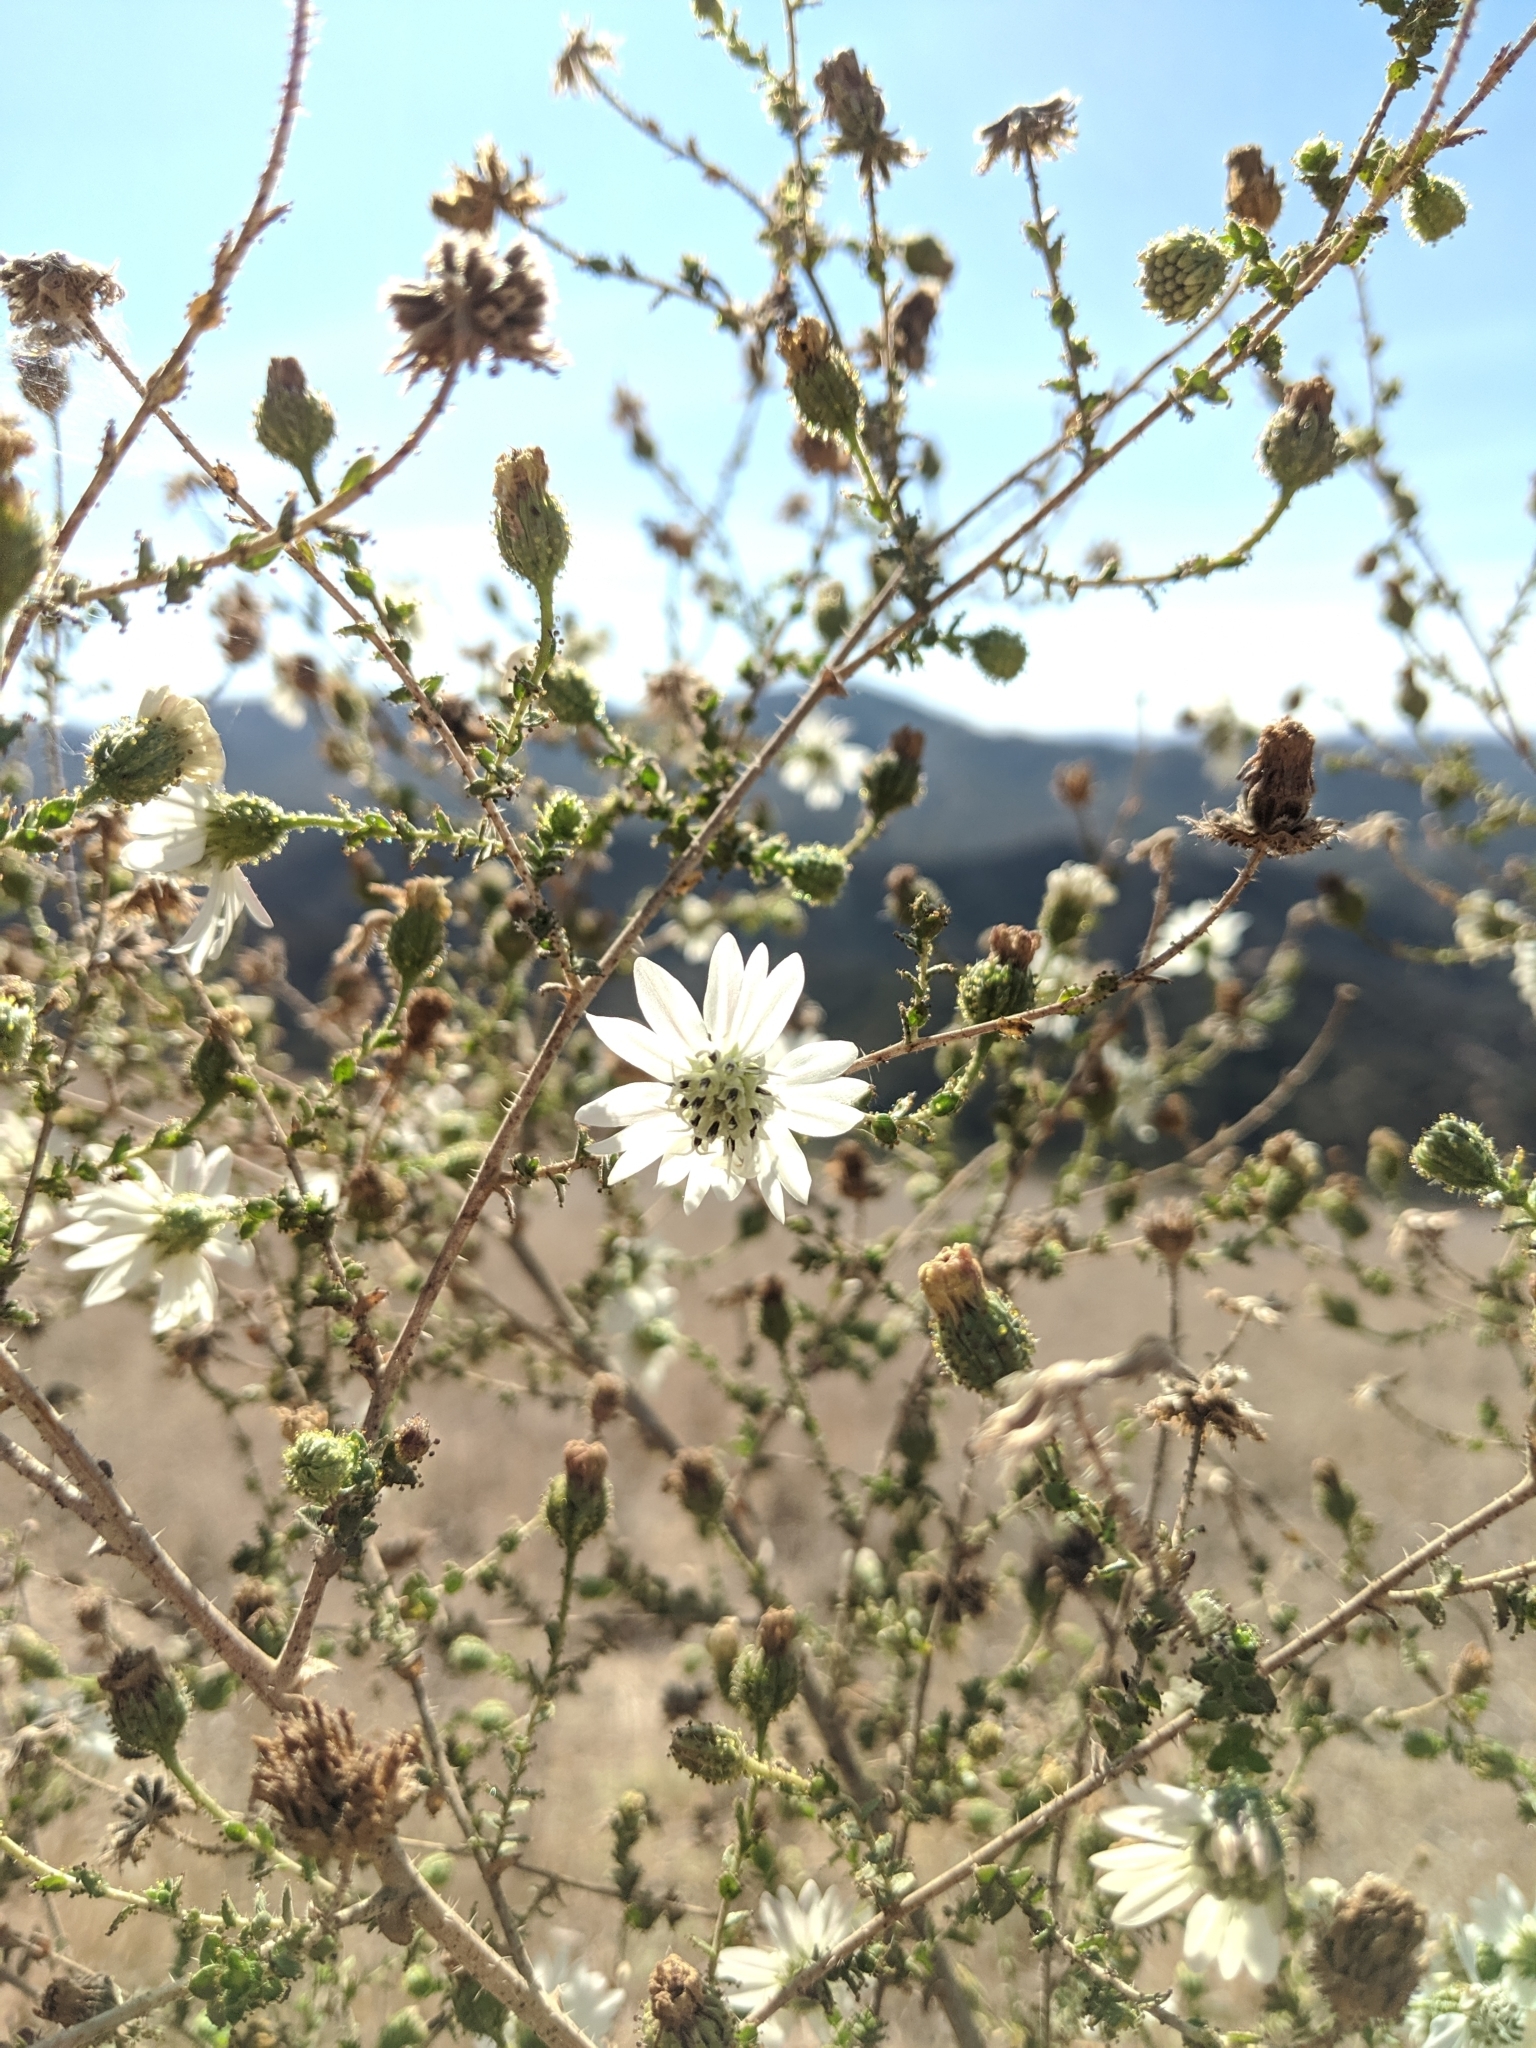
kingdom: Plantae
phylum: Tracheophyta
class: Magnoliopsida
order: Asterales
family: Asteraceae
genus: Blepharizonia
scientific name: Blepharizonia laxa
